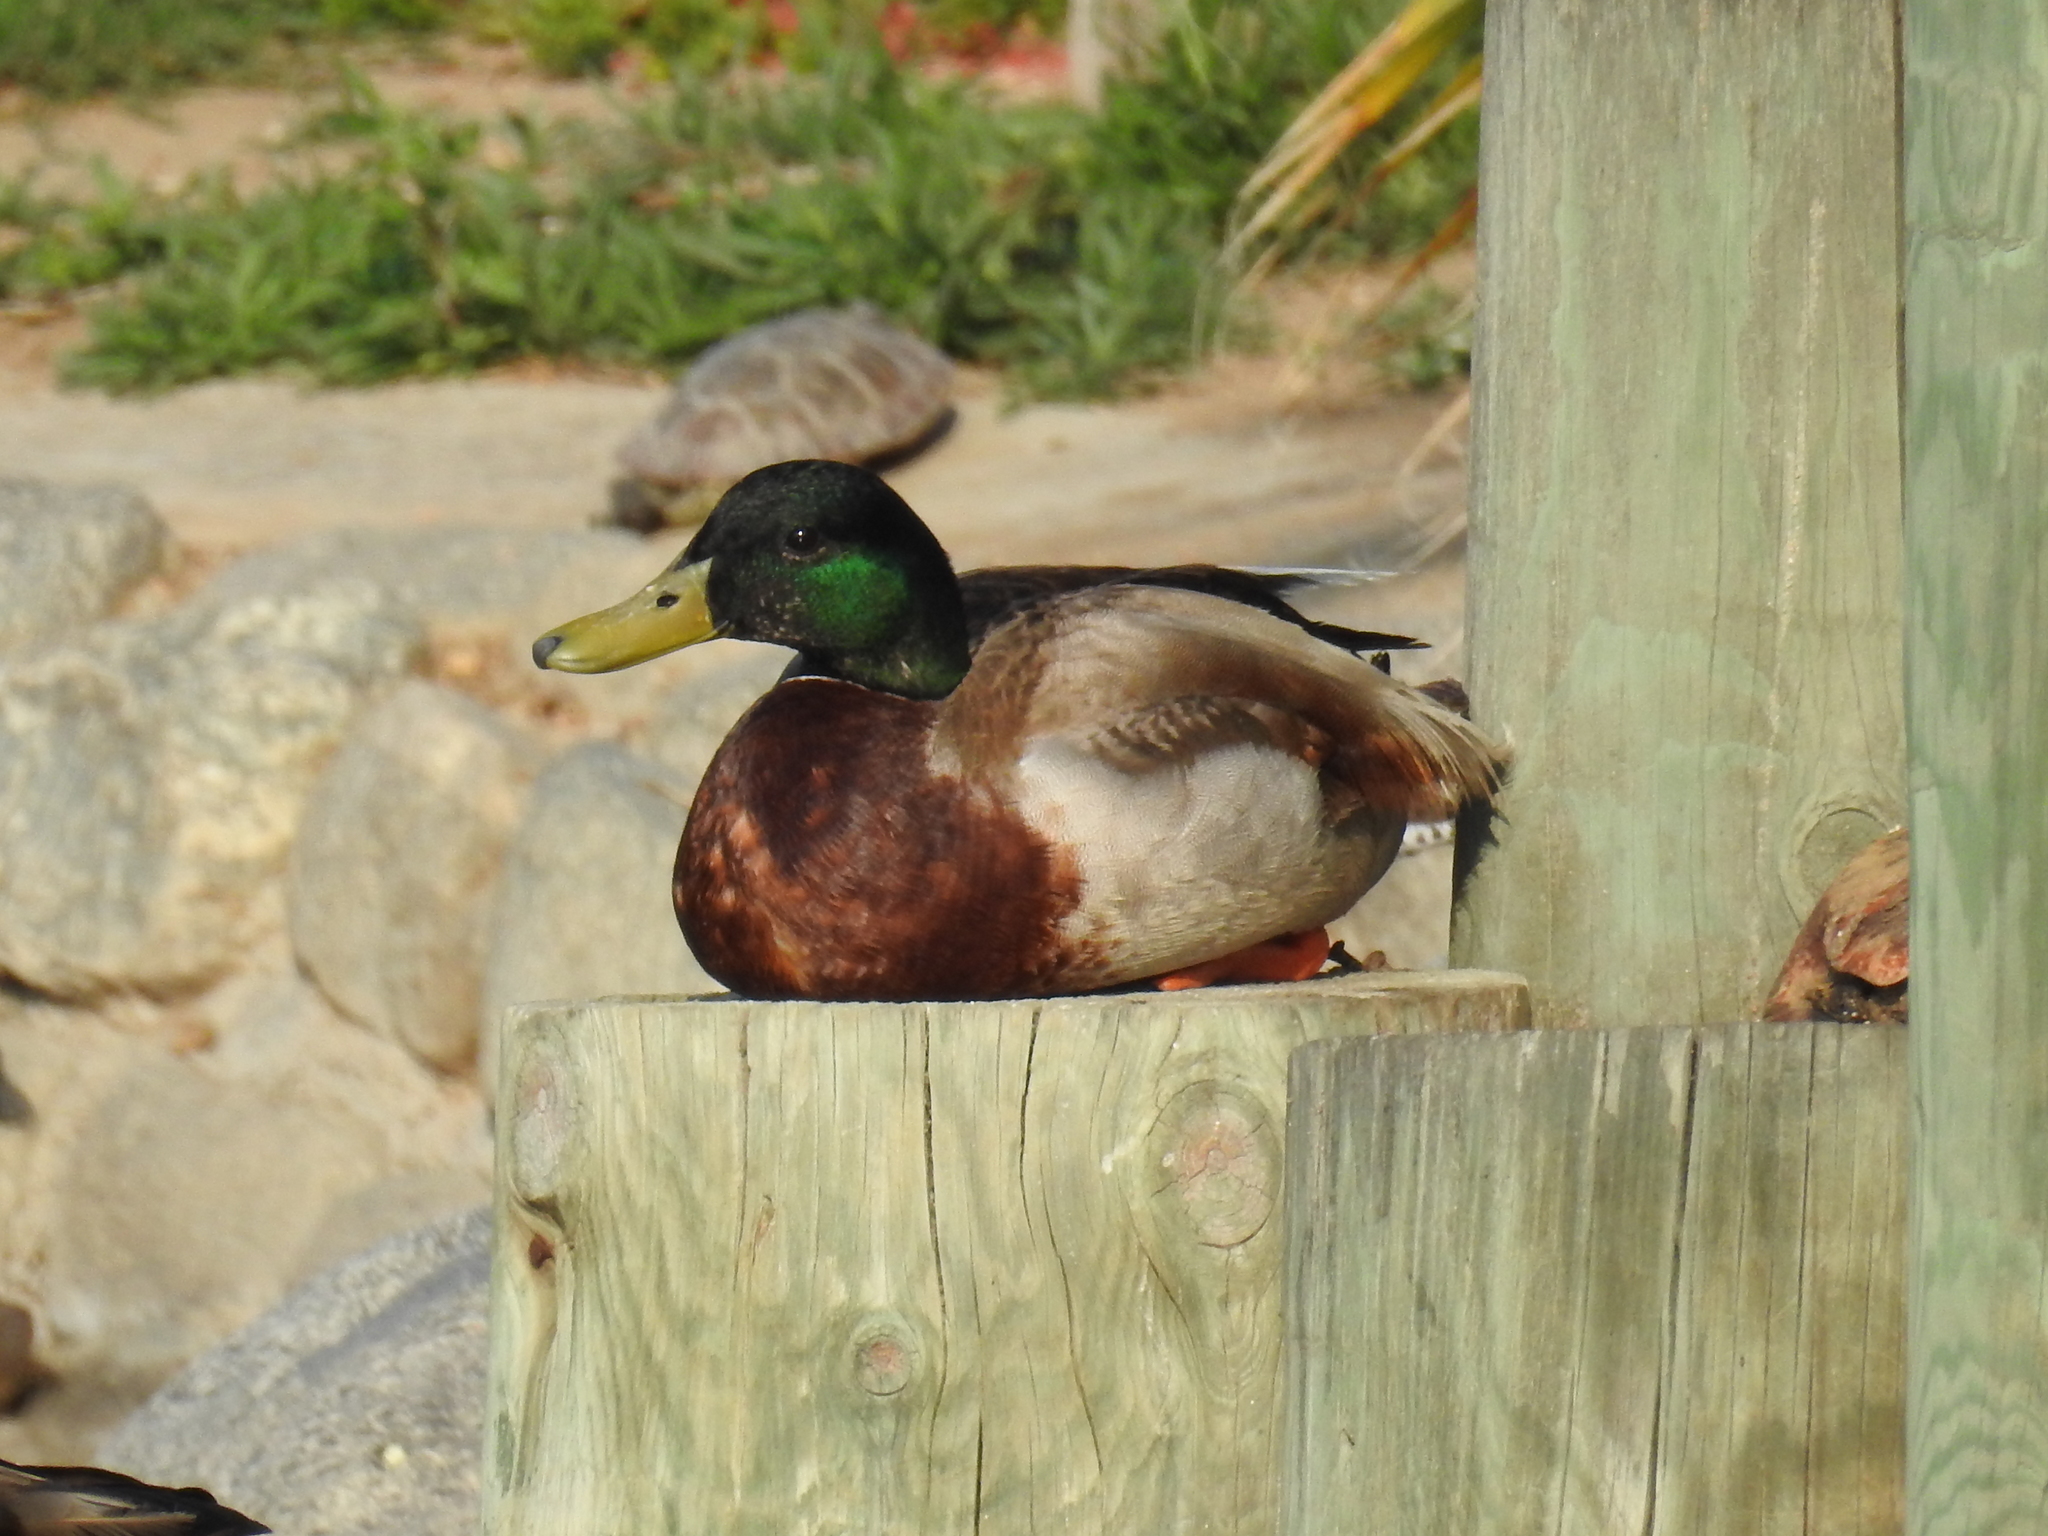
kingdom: Animalia
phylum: Chordata
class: Aves
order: Anseriformes
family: Anatidae
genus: Anas
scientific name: Anas platyrhynchos
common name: Mallard
